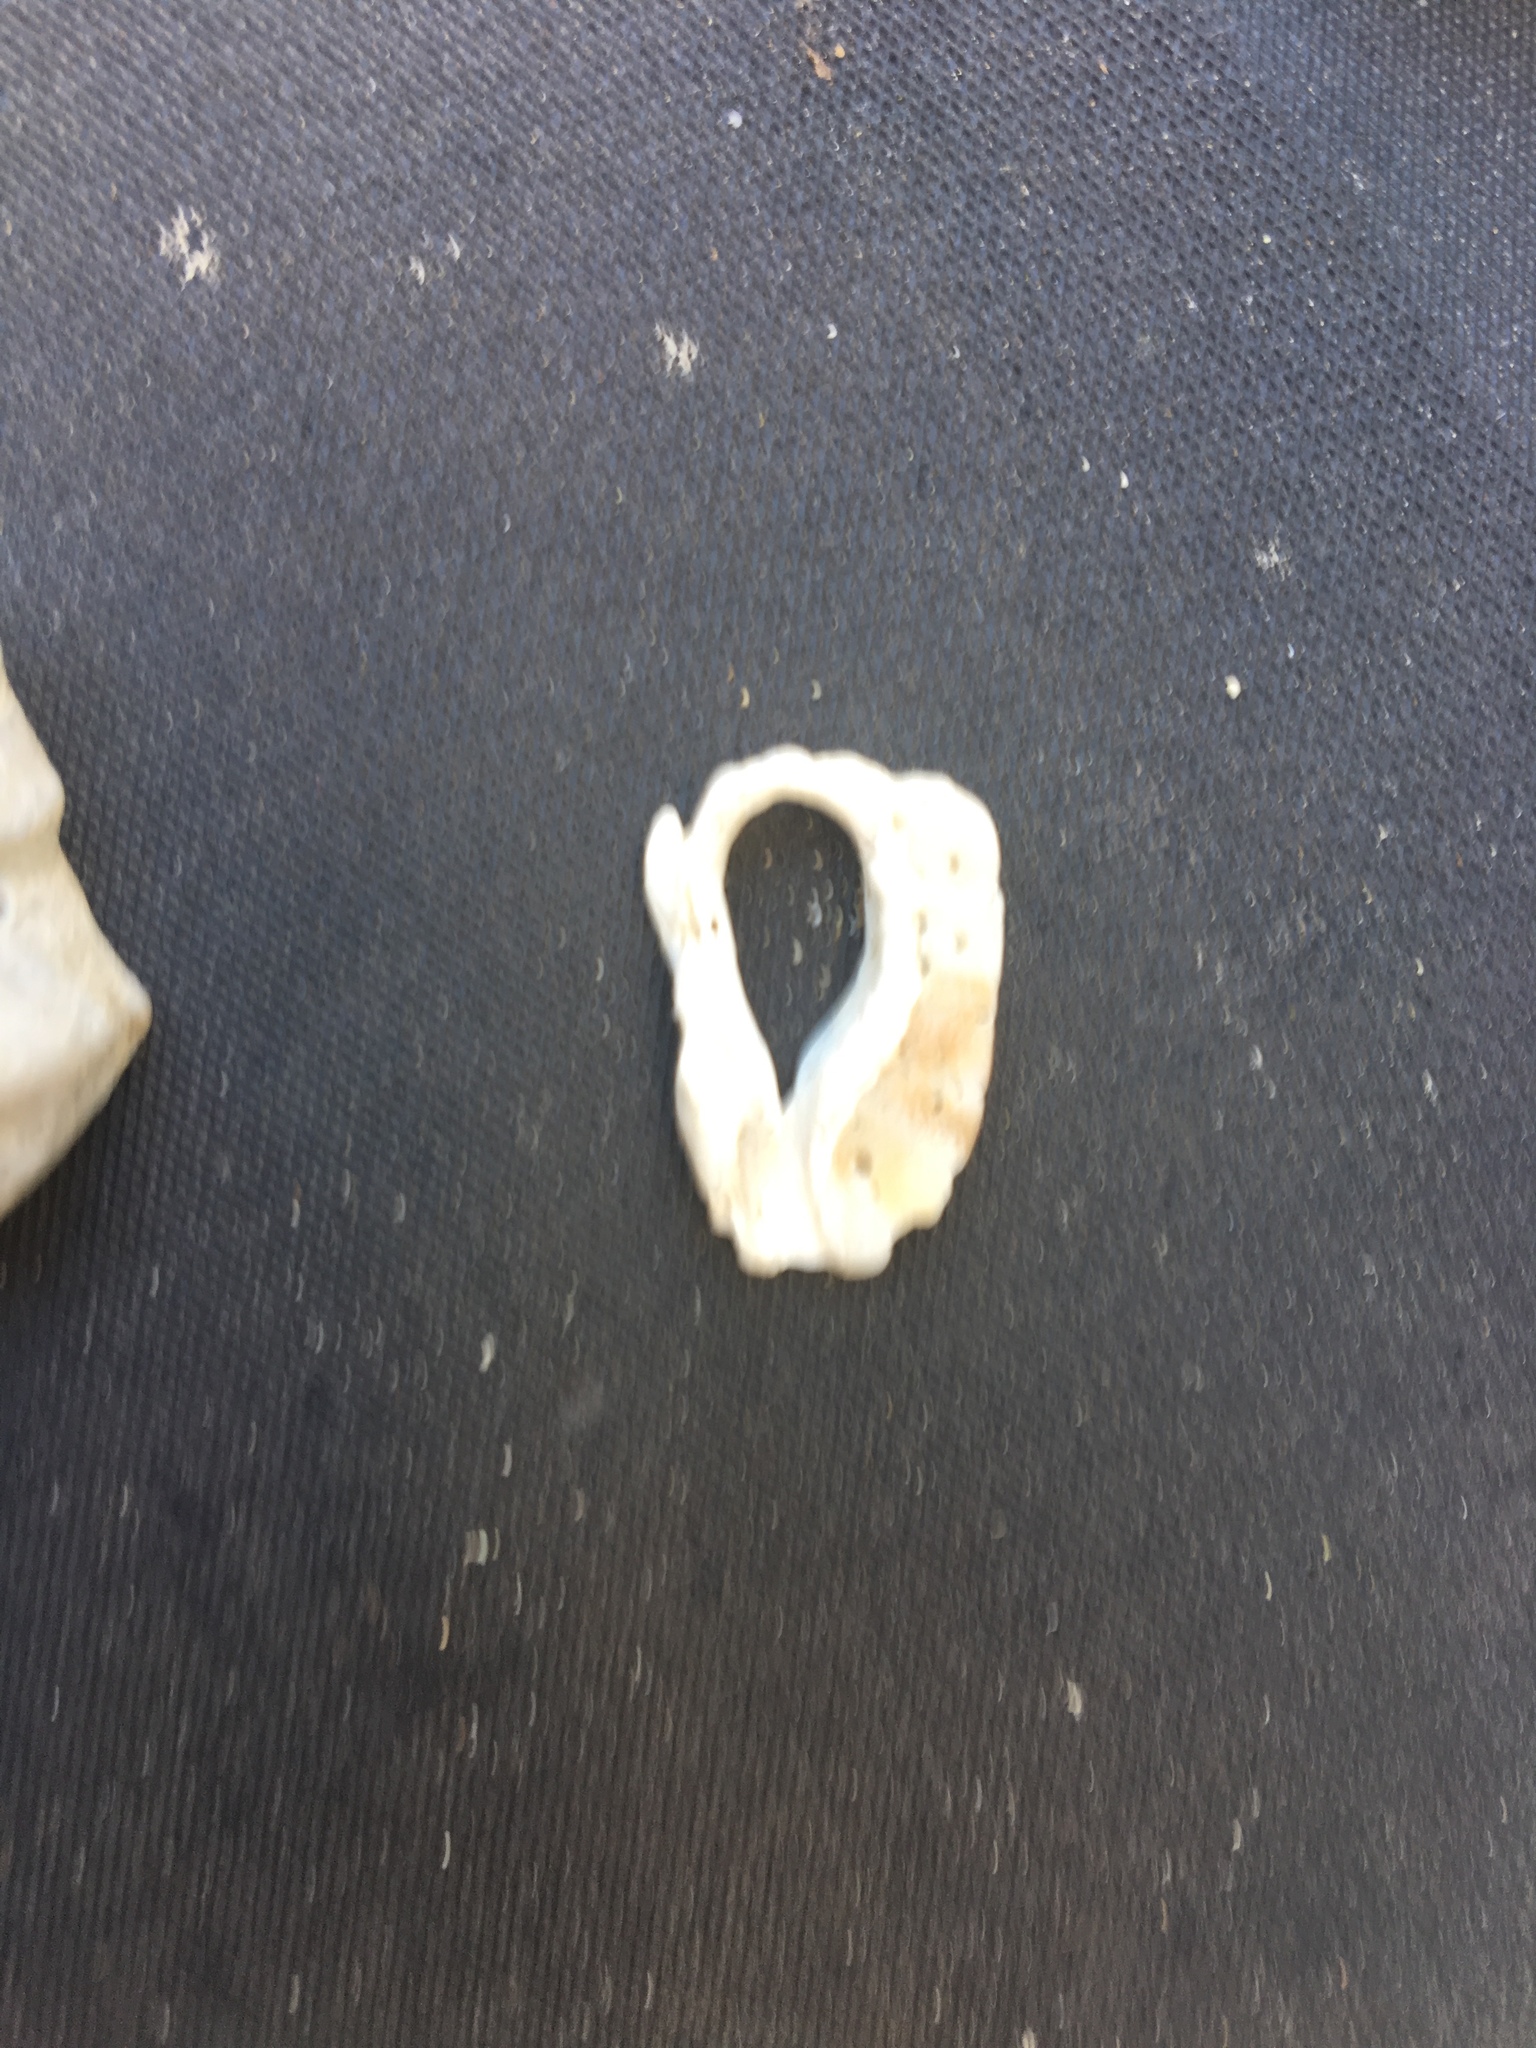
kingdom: Animalia
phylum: Mollusca
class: Gastropoda
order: Neogastropoda
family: Muricidae
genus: Ceratostoma
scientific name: Ceratostoma foliatum
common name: Foliate thorn purpura
